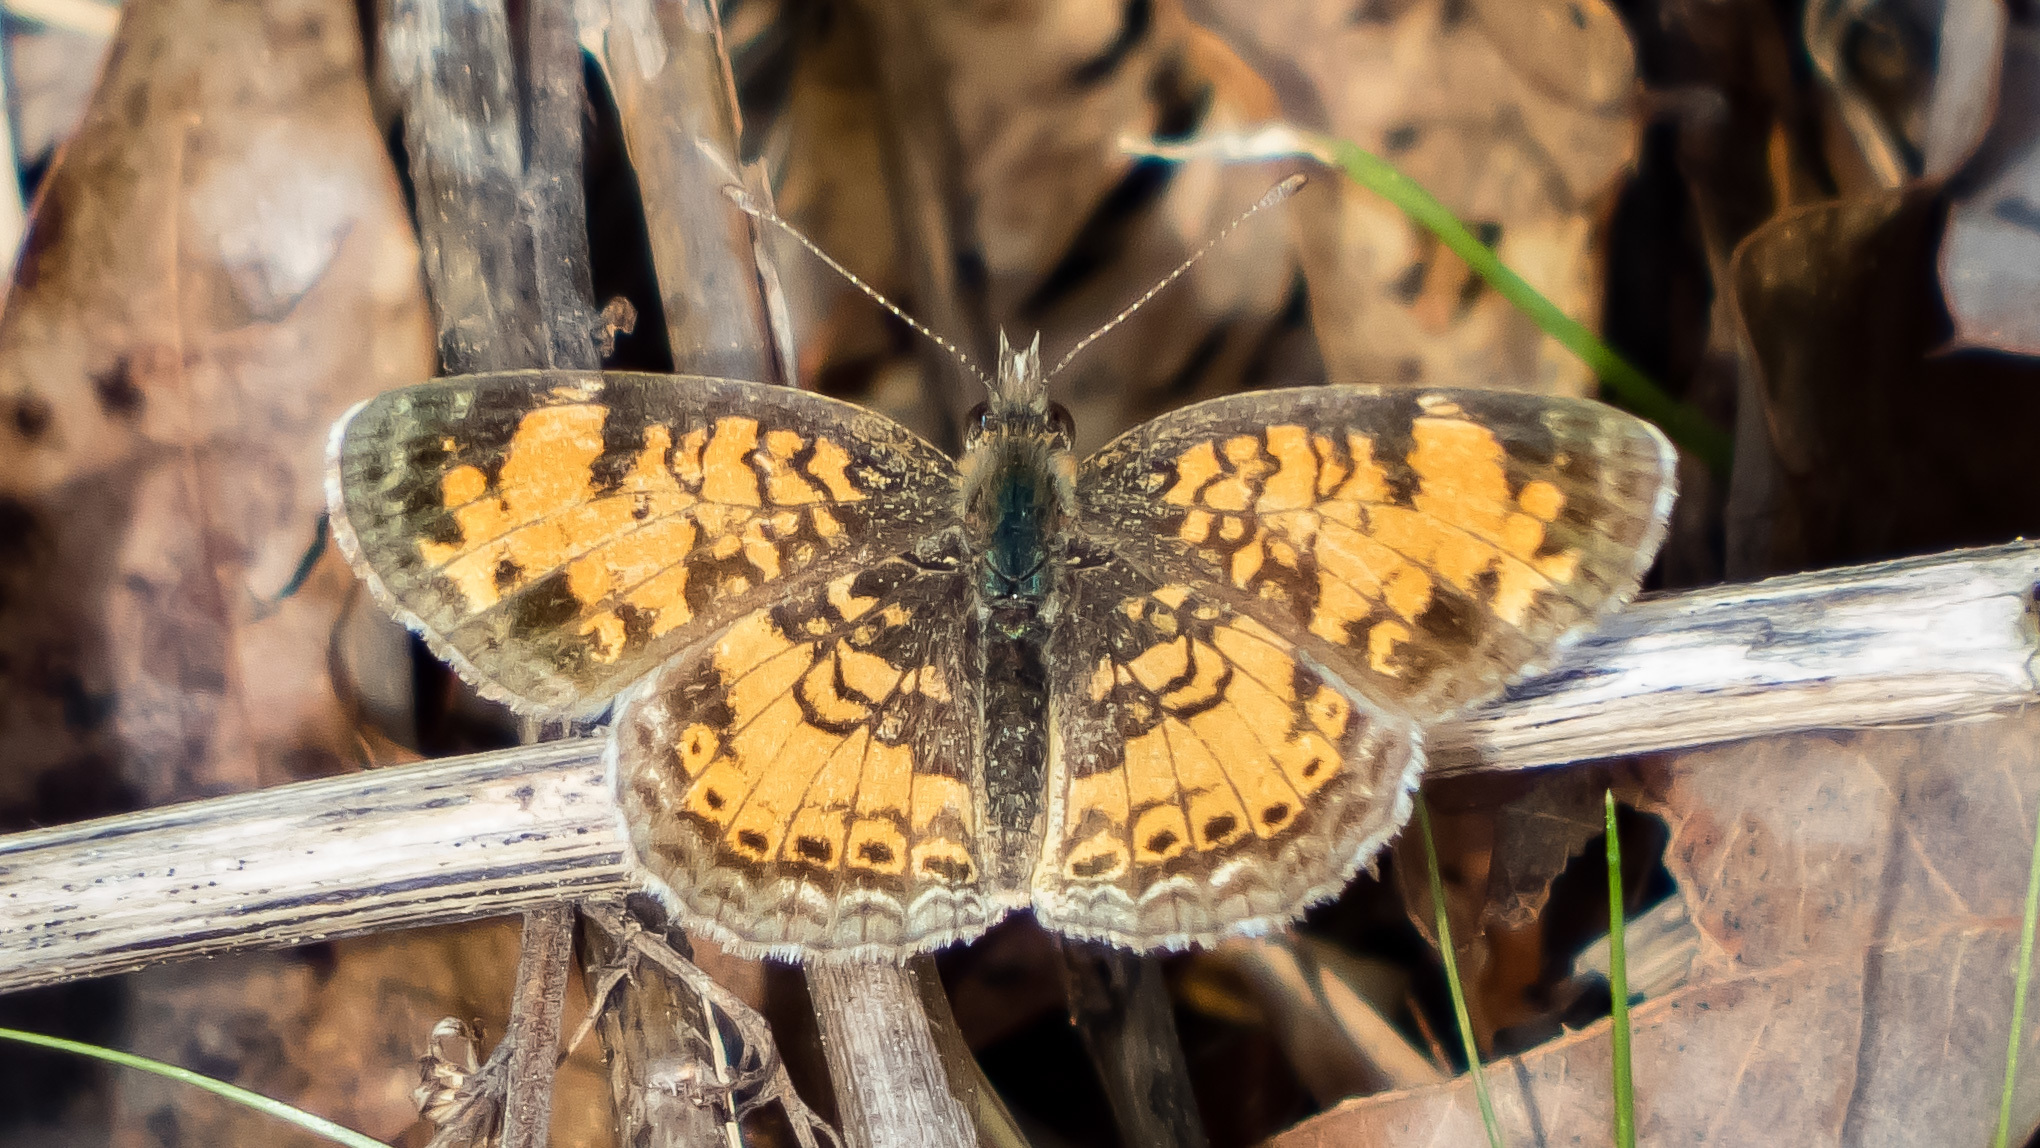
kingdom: Animalia
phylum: Arthropoda
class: Insecta
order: Lepidoptera
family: Nymphalidae
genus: Phyciodes
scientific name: Phyciodes tharos
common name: Pearl crescent
